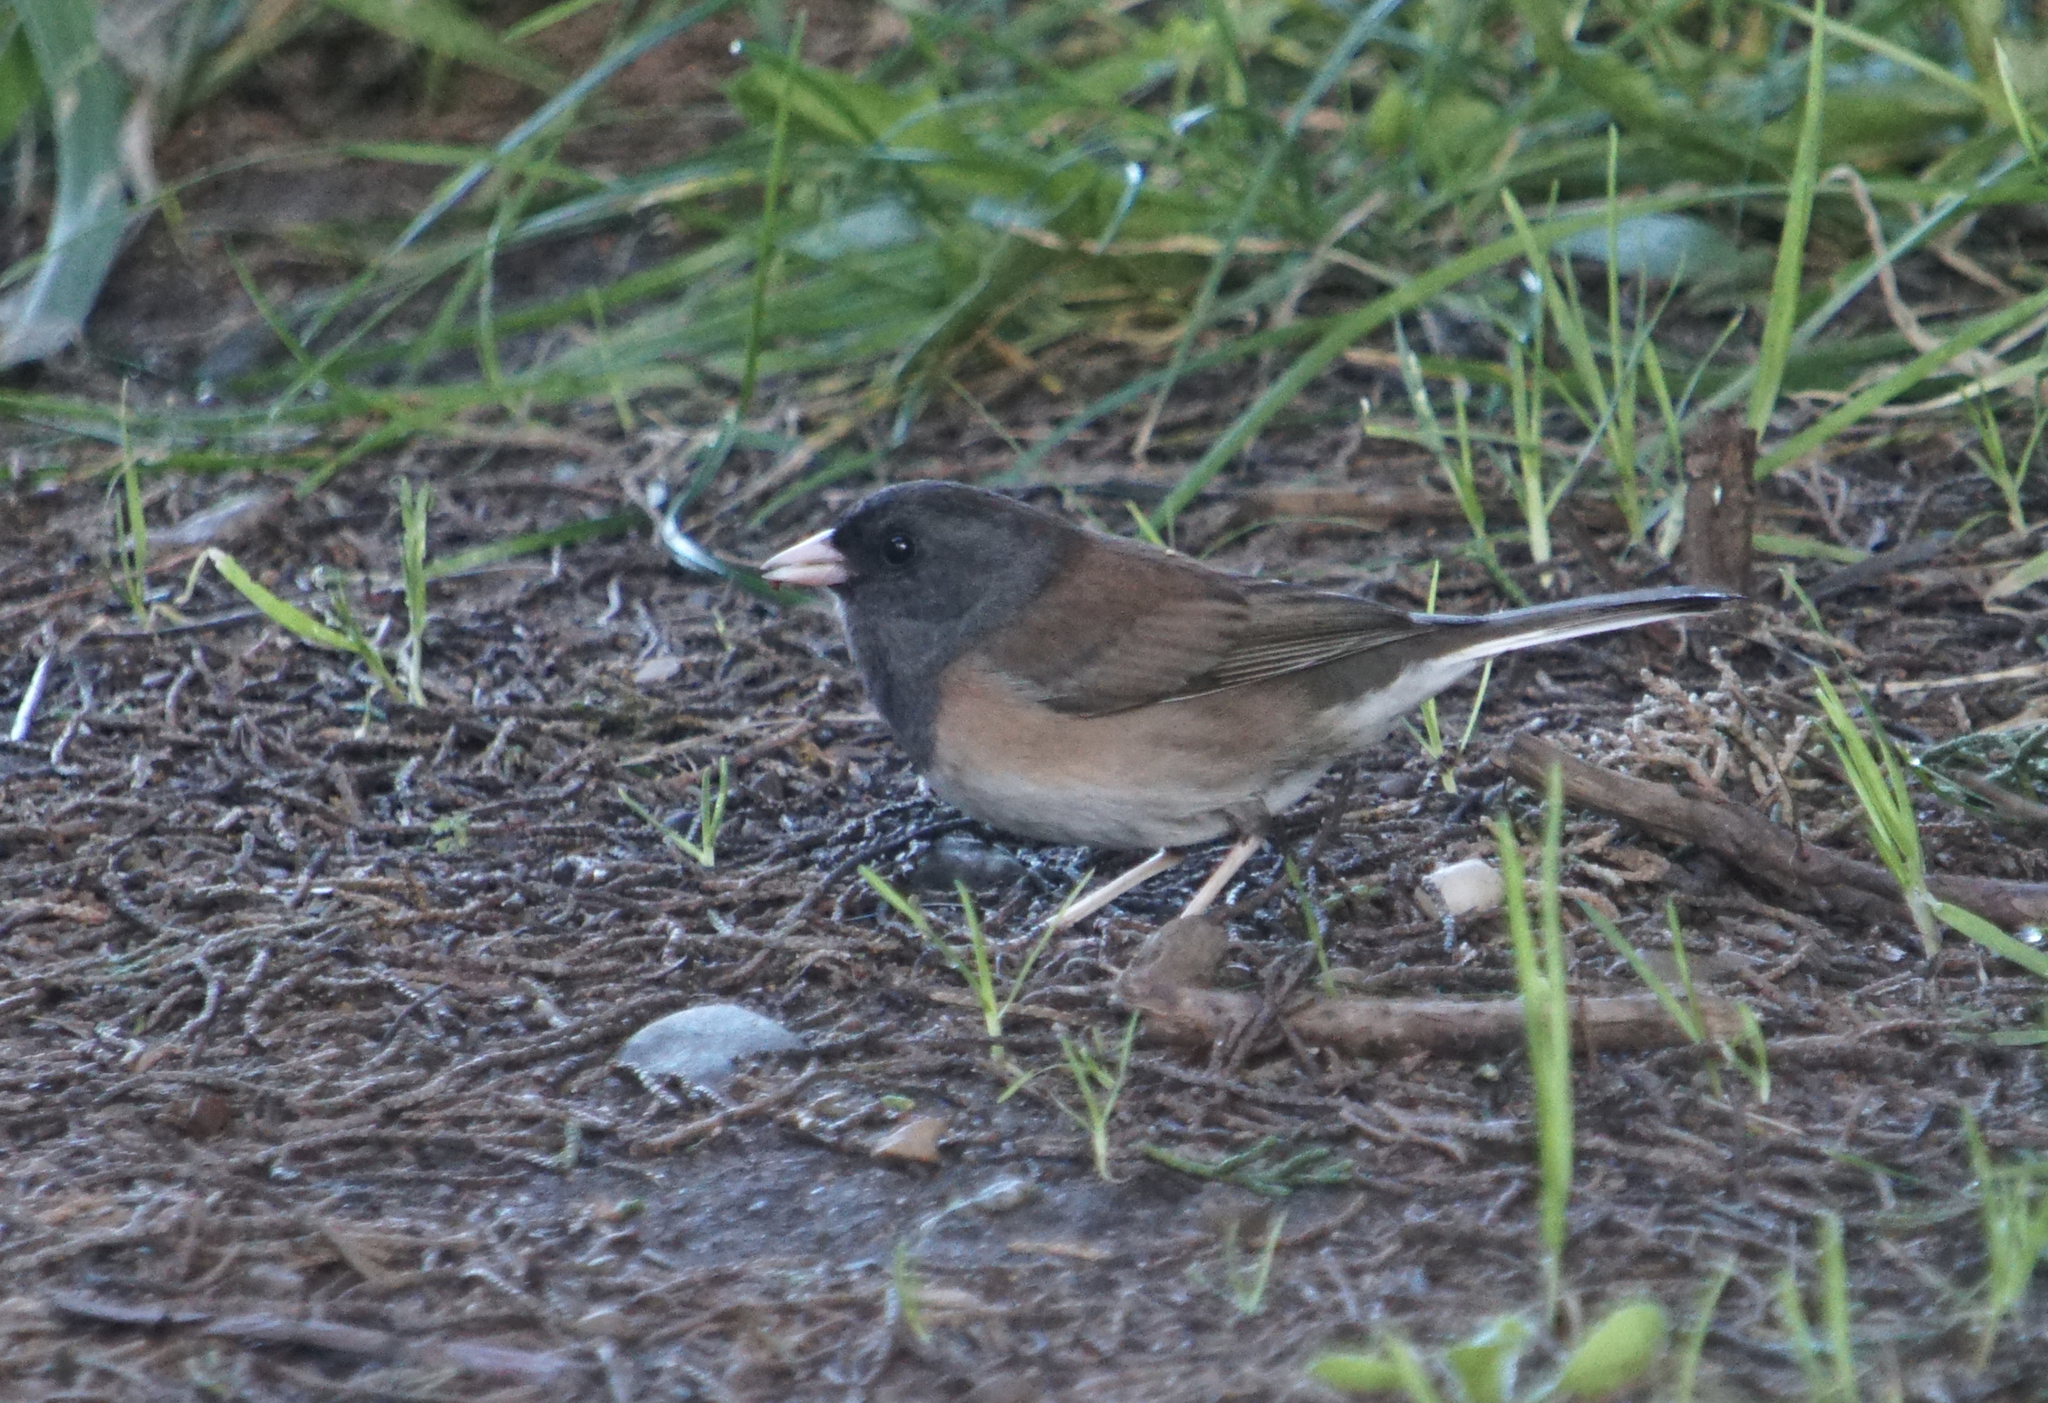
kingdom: Animalia
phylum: Chordata
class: Aves
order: Passeriformes
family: Passerellidae
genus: Junco
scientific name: Junco hyemalis
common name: Dark-eyed junco
